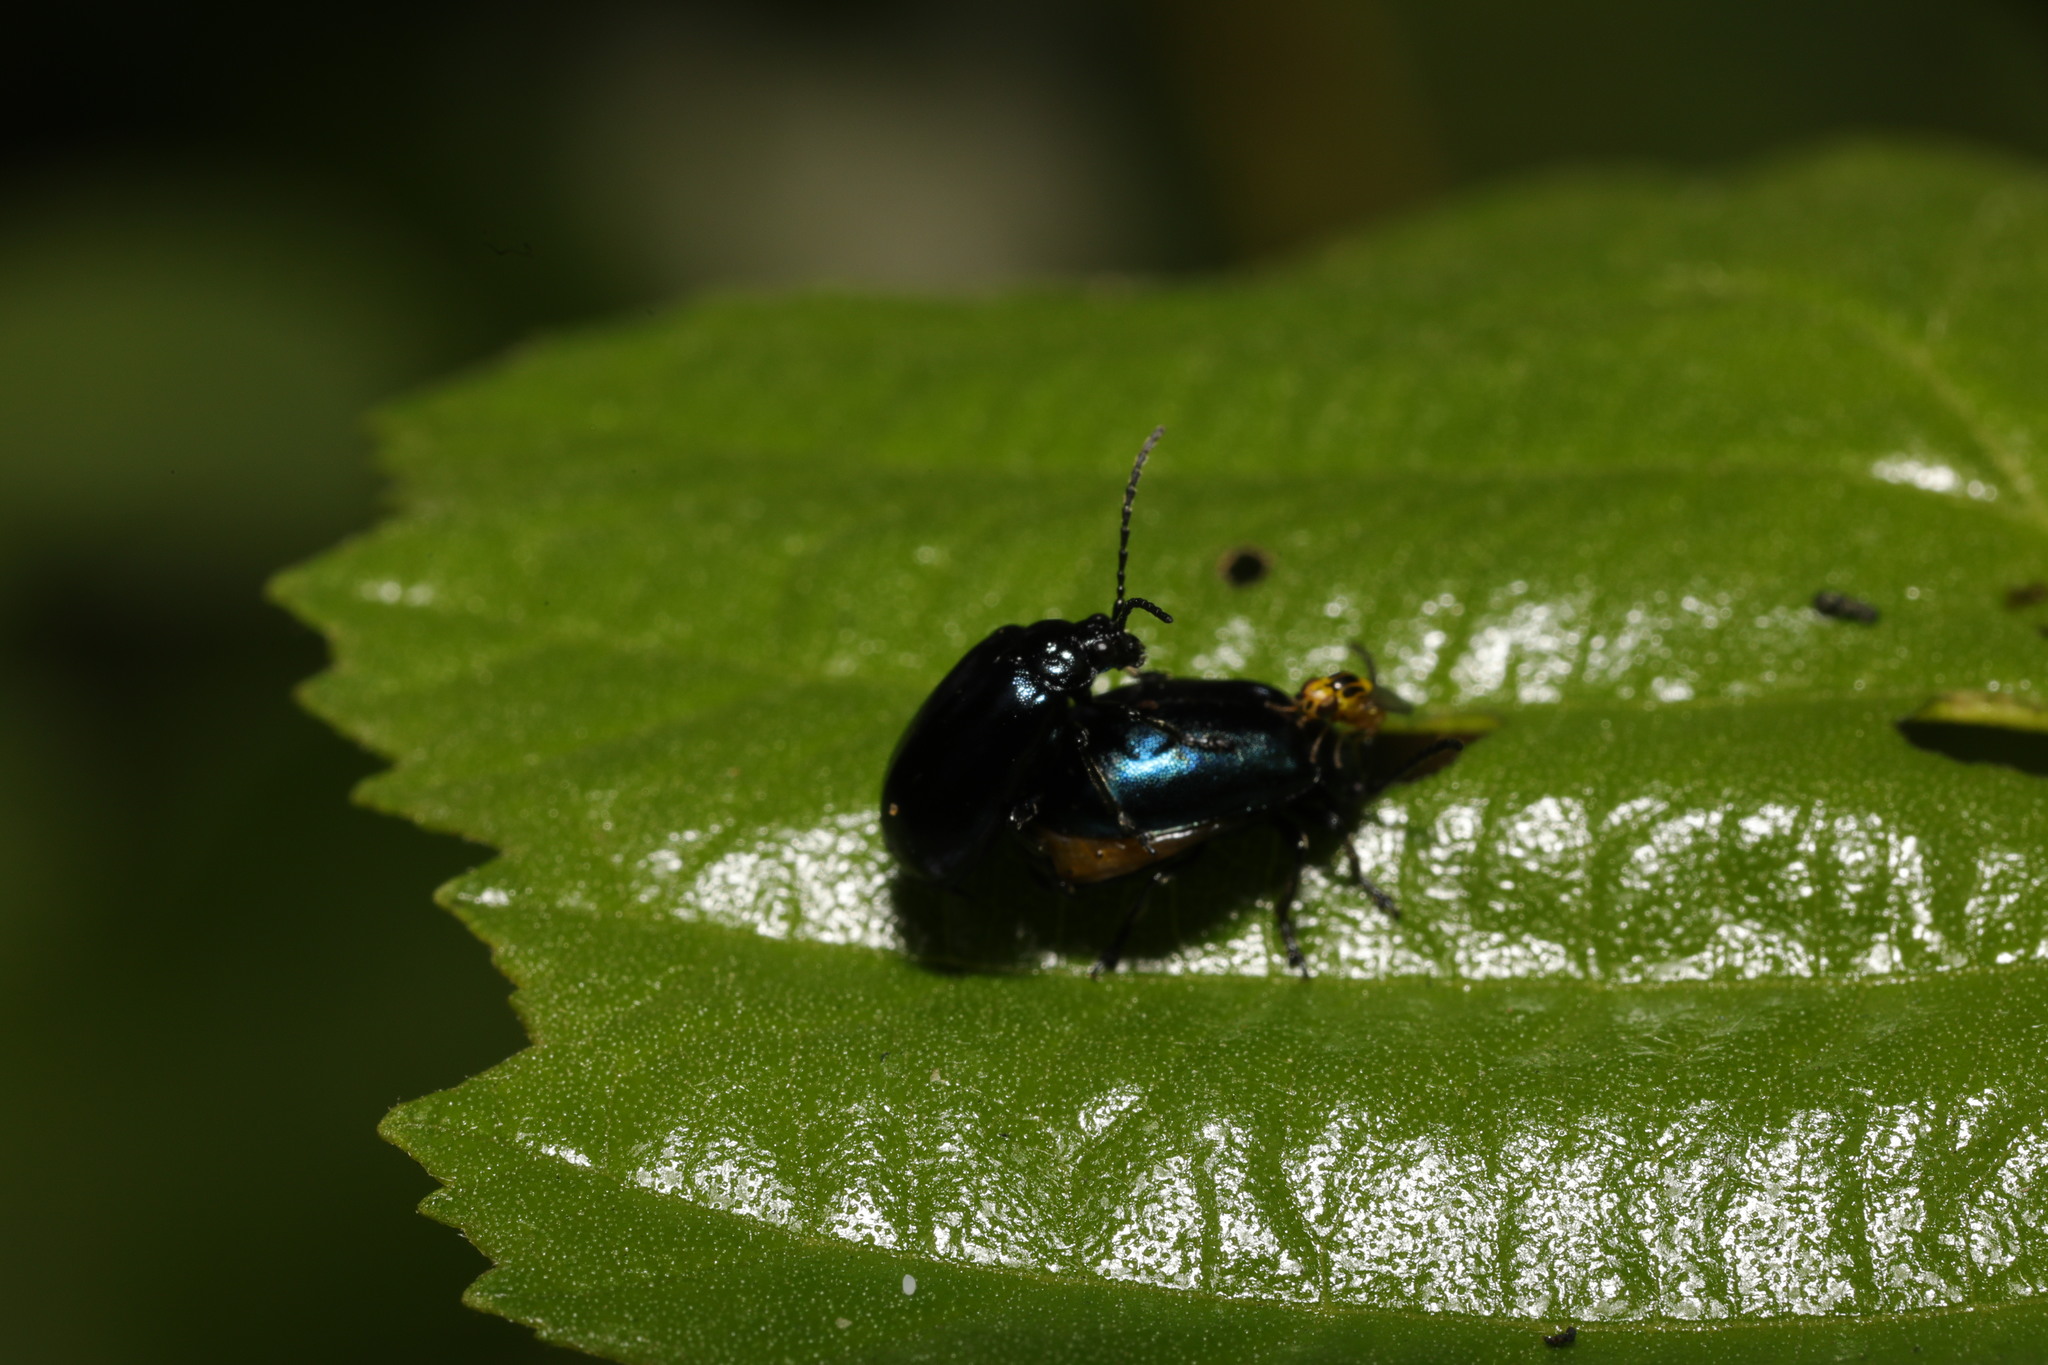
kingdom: Animalia
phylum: Arthropoda
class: Insecta
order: Coleoptera
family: Chrysomelidae
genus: Agelastica
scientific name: Agelastica alni
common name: Alder leaf beetle
